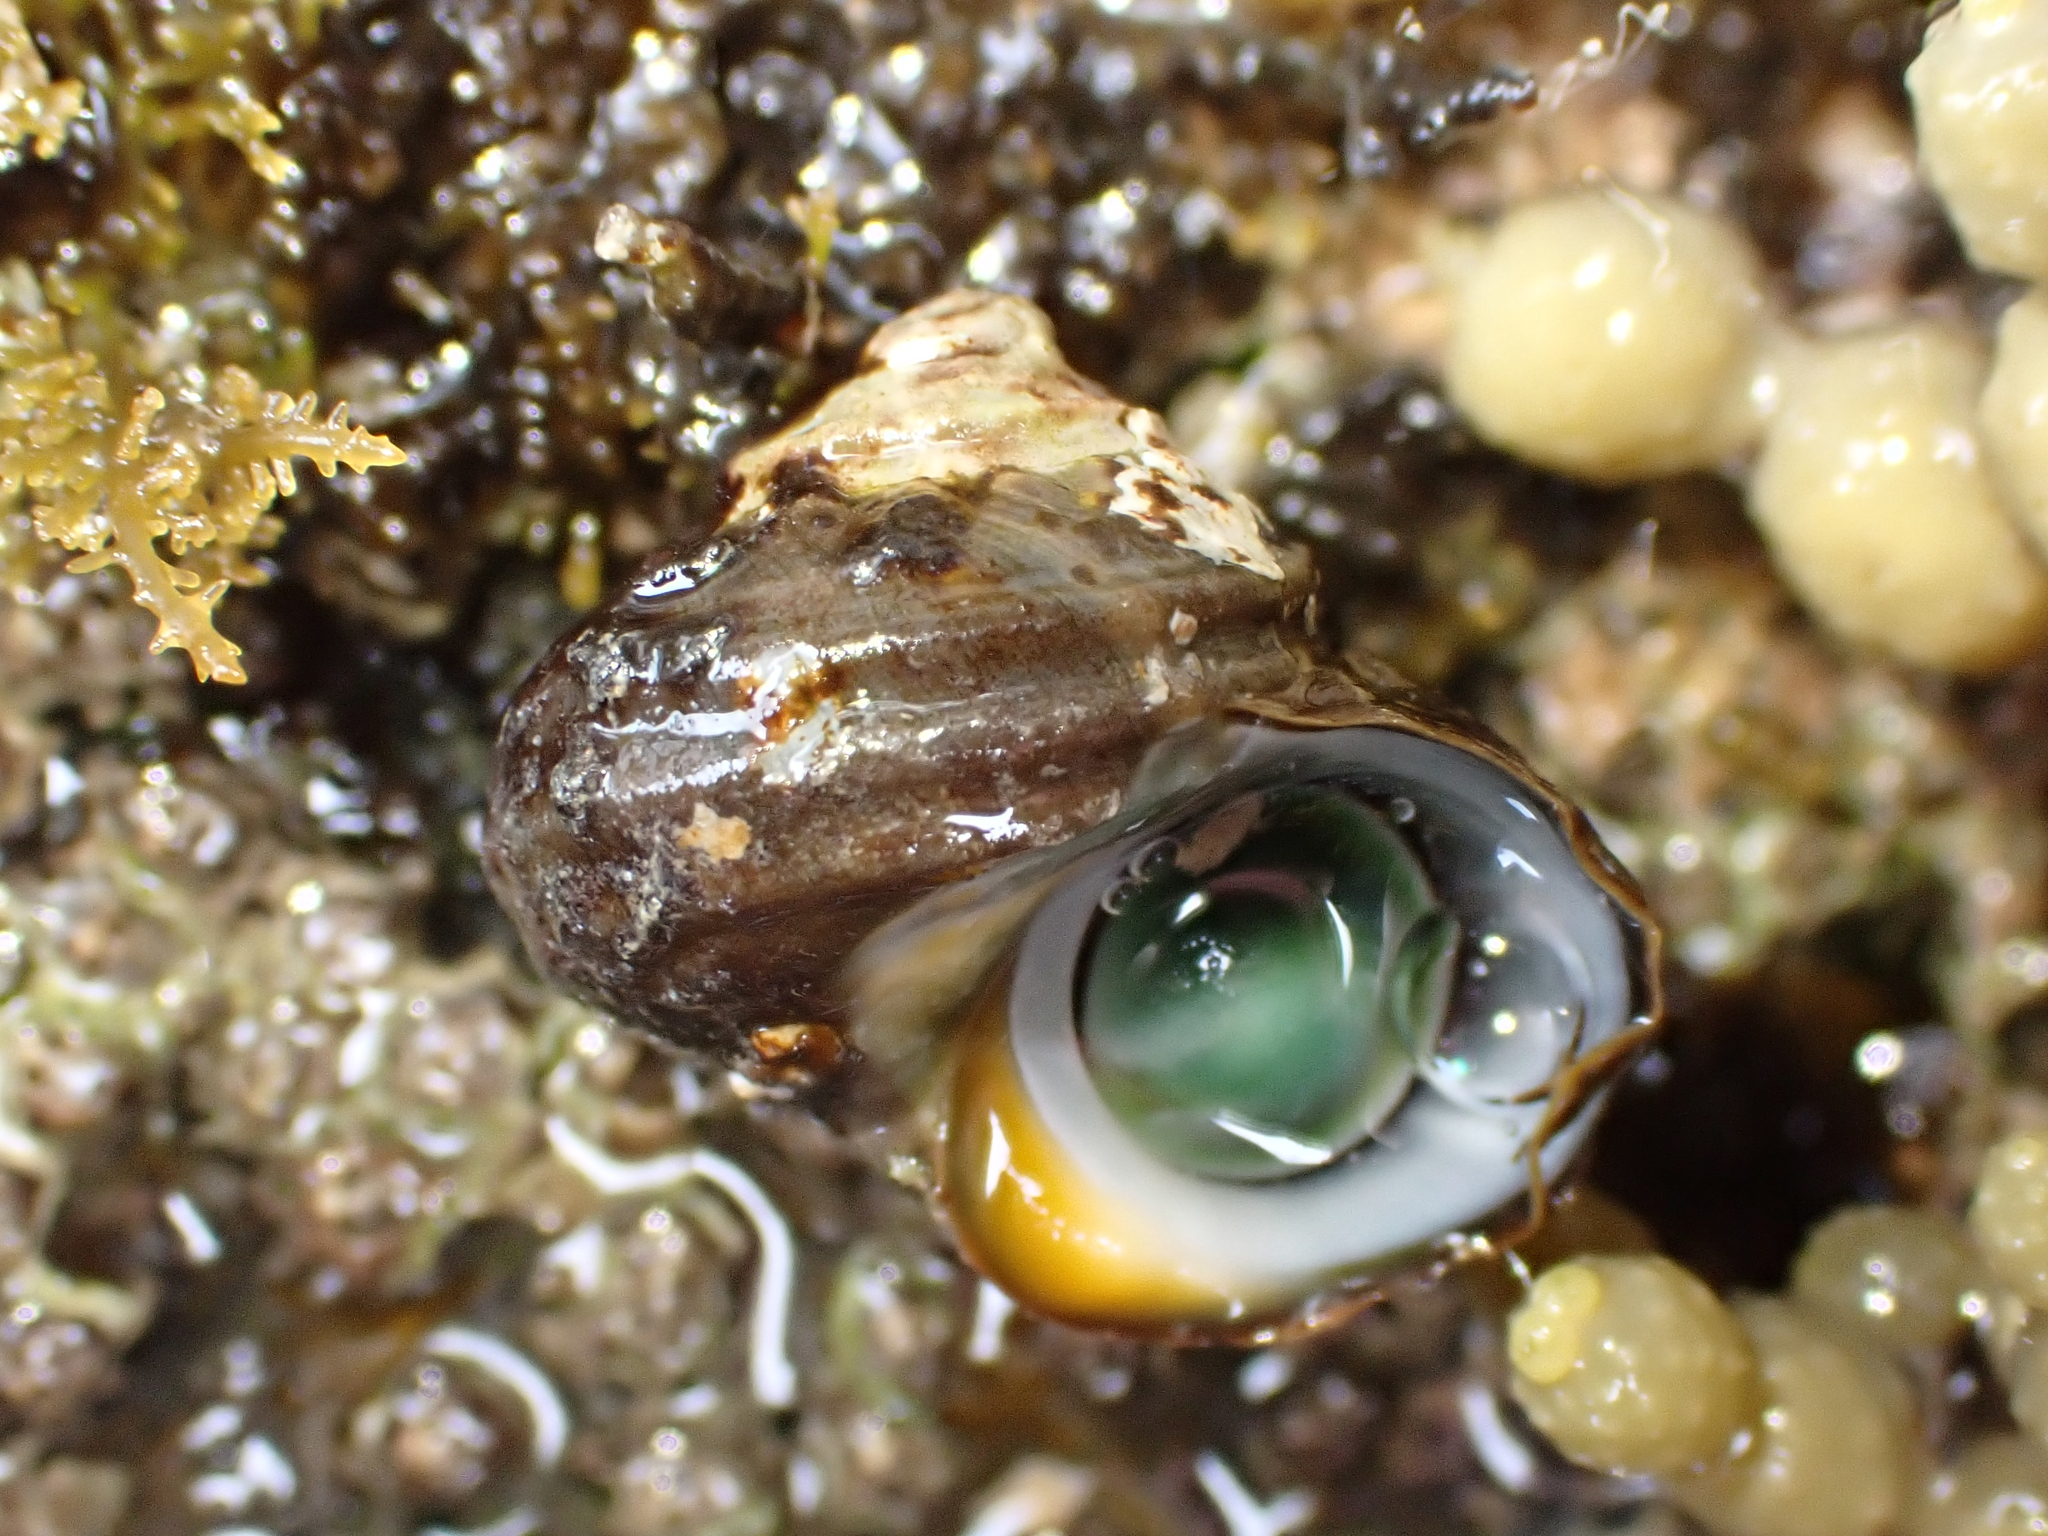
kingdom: Animalia
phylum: Mollusca
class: Gastropoda
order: Trochida
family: Turbinidae
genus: Lunella
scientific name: Lunella smaragda
